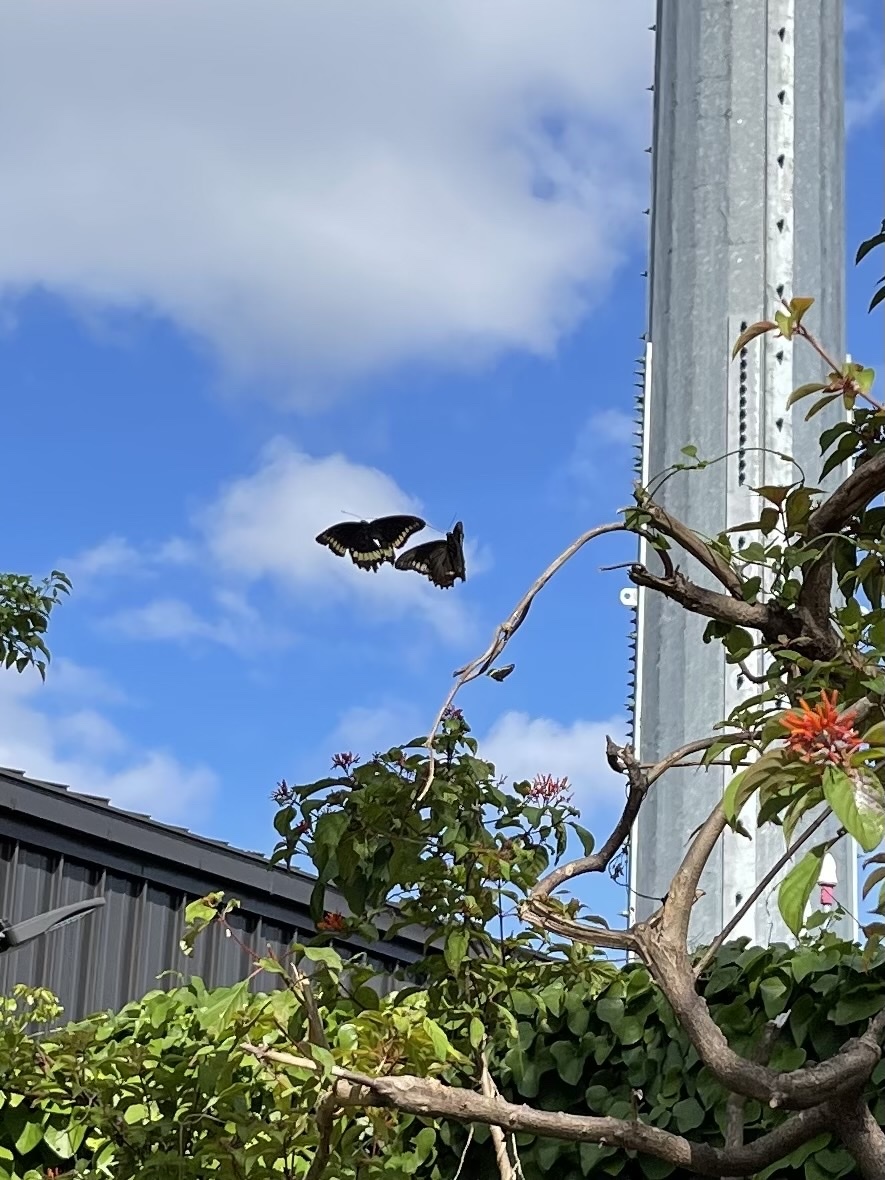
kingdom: Animalia
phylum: Arthropoda
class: Insecta
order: Lepidoptera
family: Papilionidae
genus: Battus
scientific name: Battus polydamas
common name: Polydamas swallowtail
